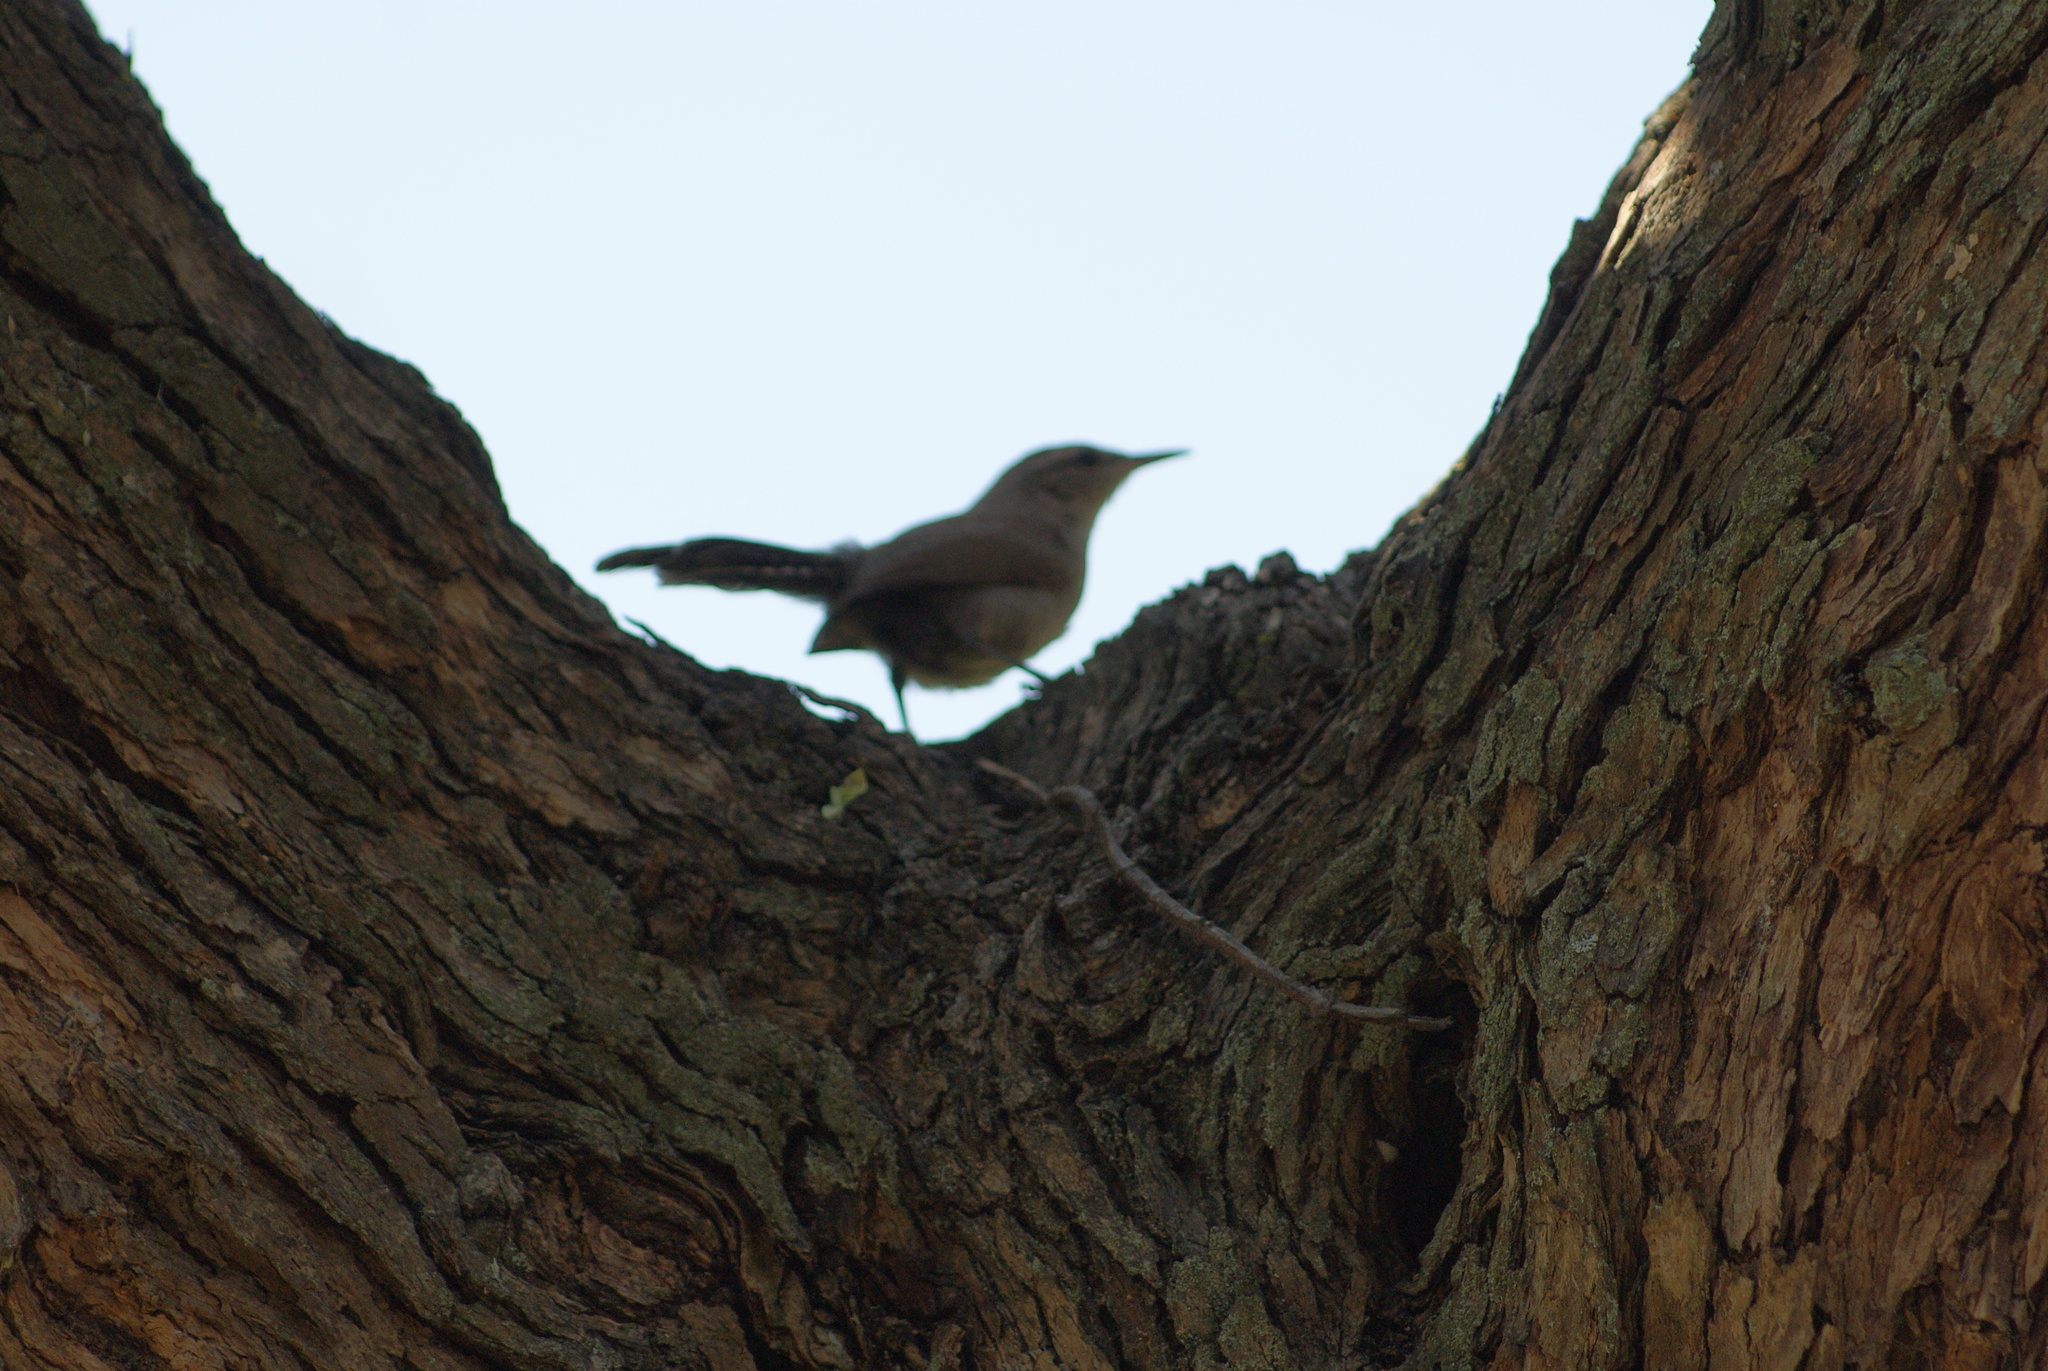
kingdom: Animalia
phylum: Chordata
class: Aves
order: Passeriformes
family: Troglodytidae
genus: Thryomanes
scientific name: Thryomanes bewickii
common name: Bewick's wren
